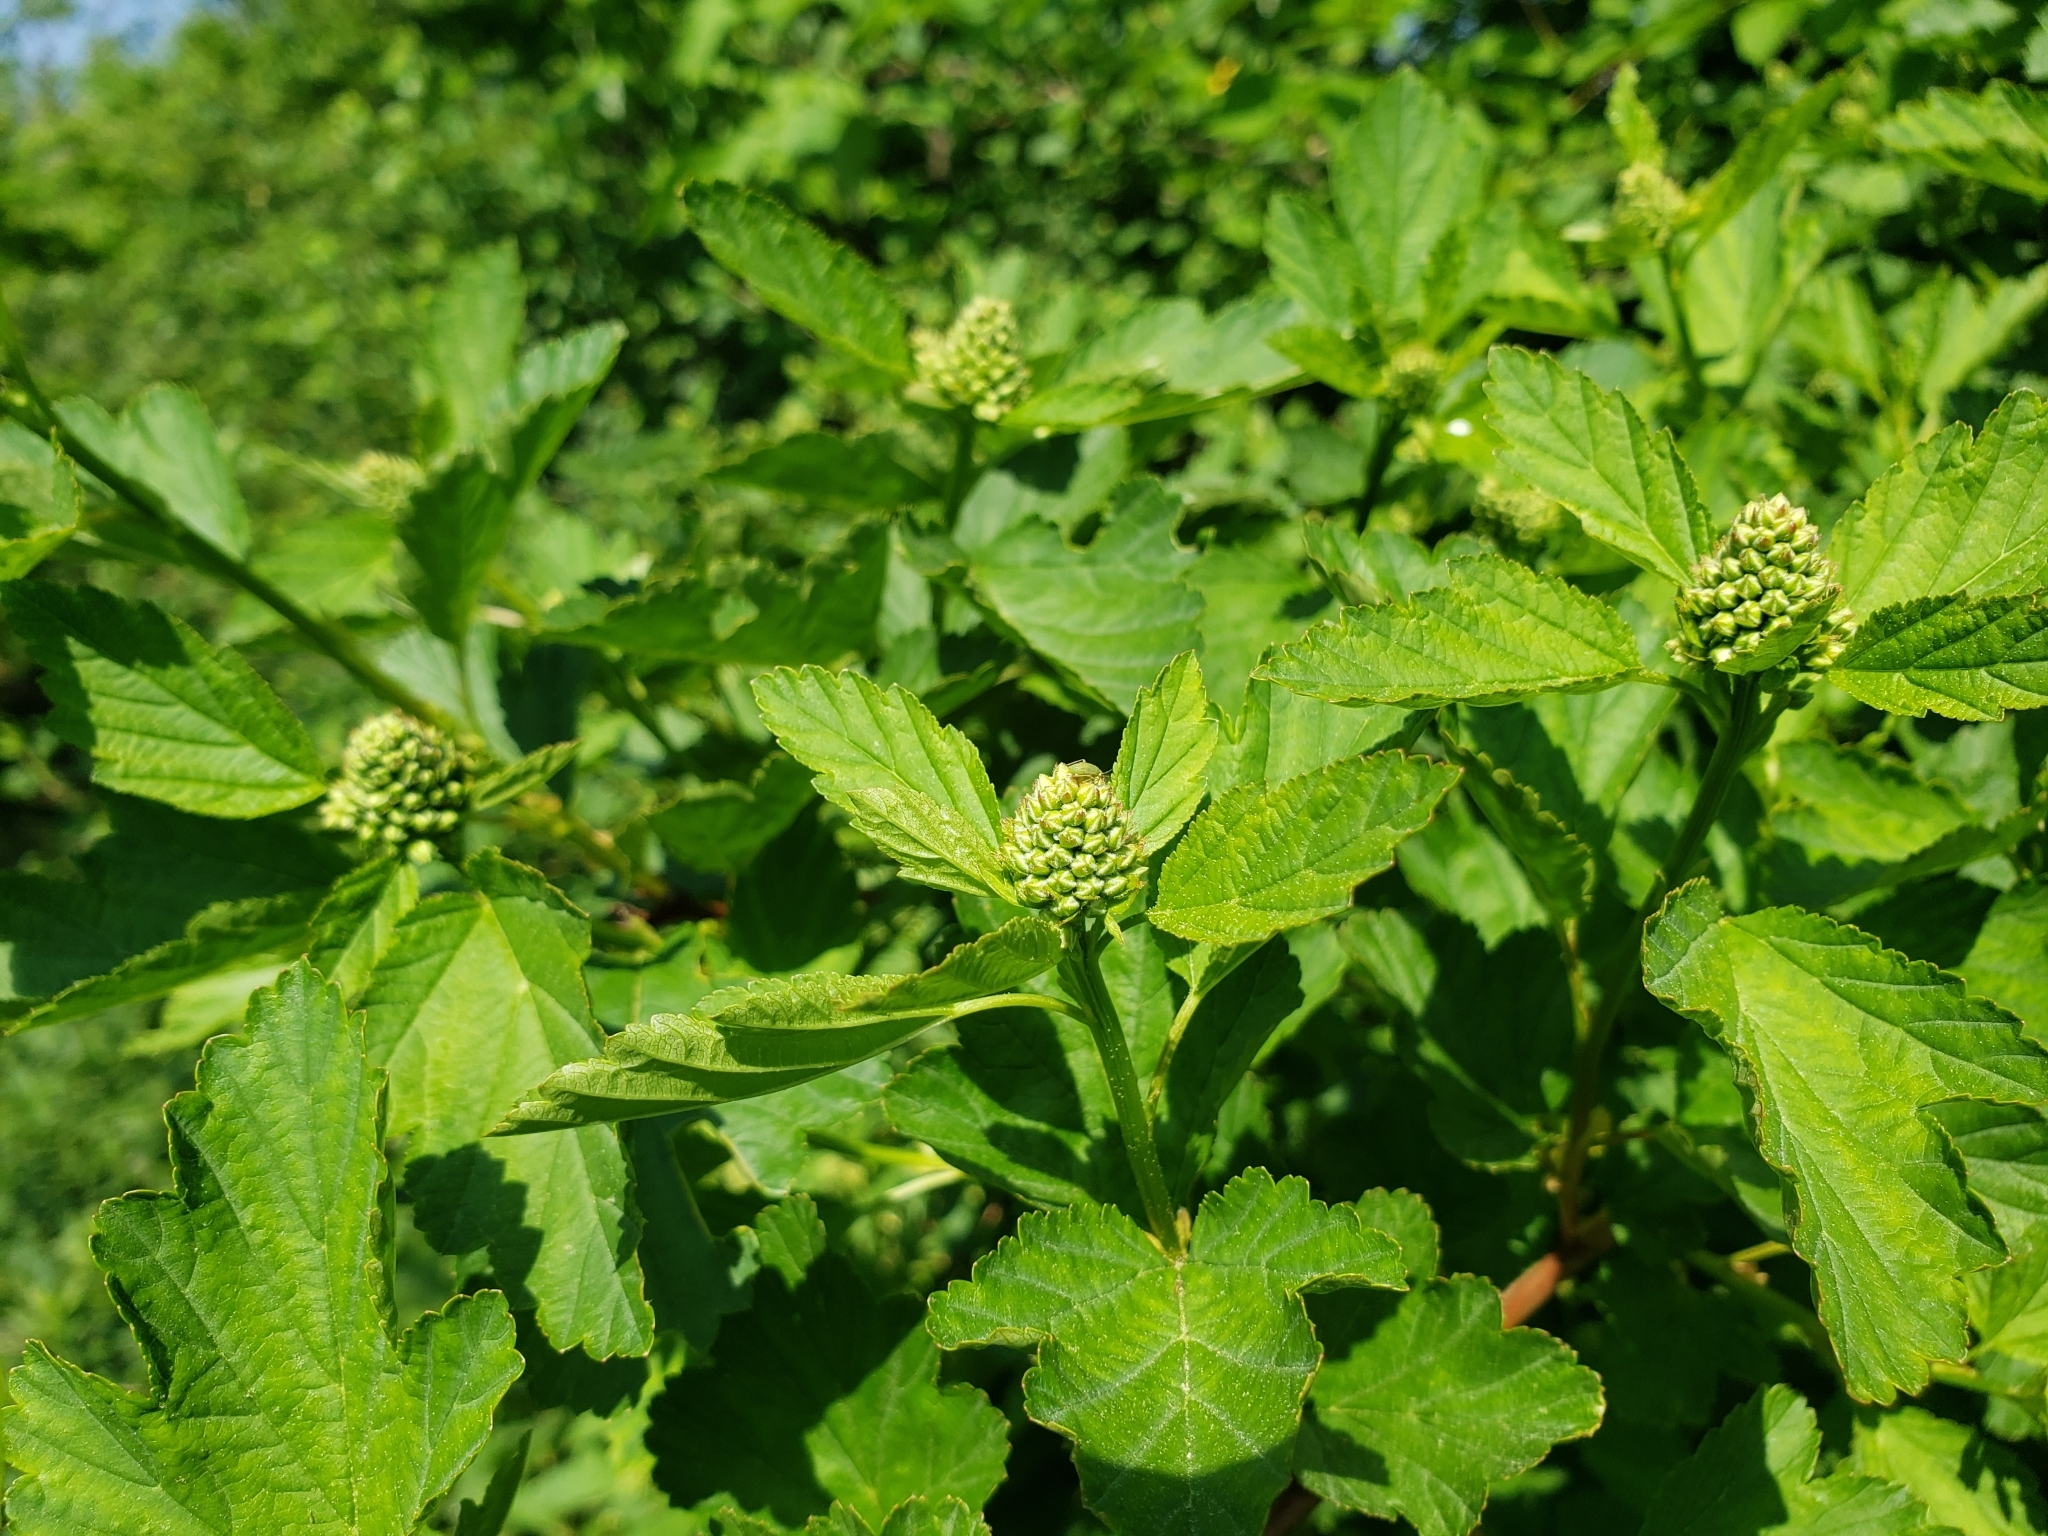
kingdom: Plantae
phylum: Tracheophyta
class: Magnoliopsida
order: Rosales
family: Rosaceae
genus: Physocarpus
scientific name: Physocarpus opulifolius
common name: Ninebark
